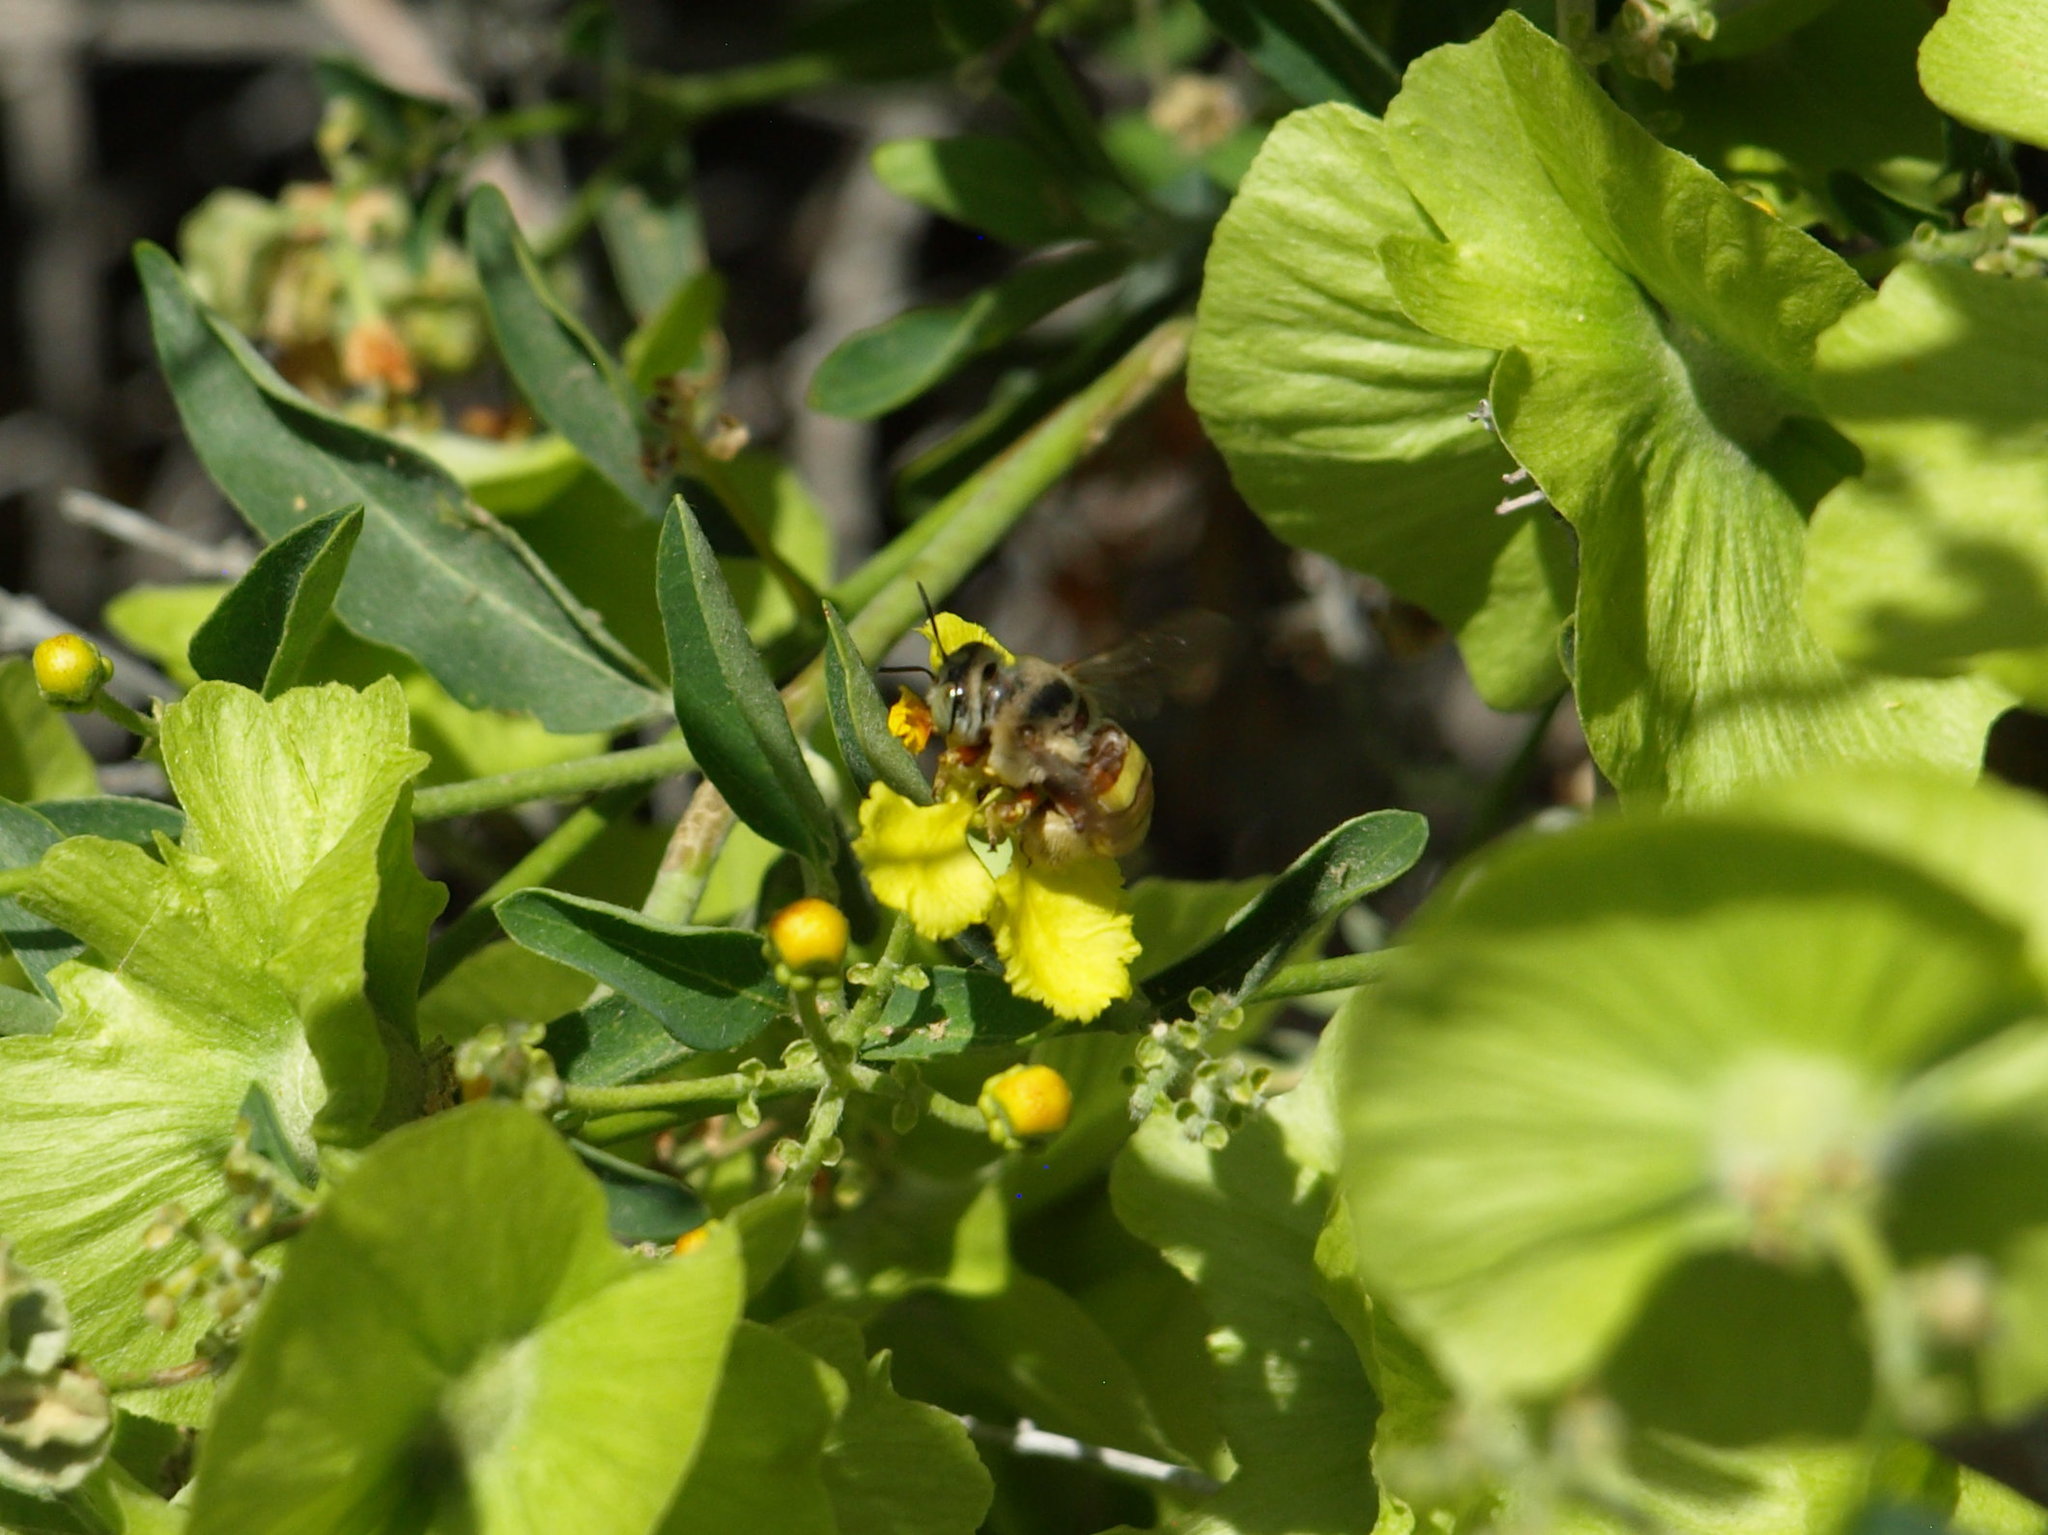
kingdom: Animalia
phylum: Arthropoda
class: Insecta
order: Hymenoptera
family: Apidae
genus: Centris
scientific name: Centris aethyctera
